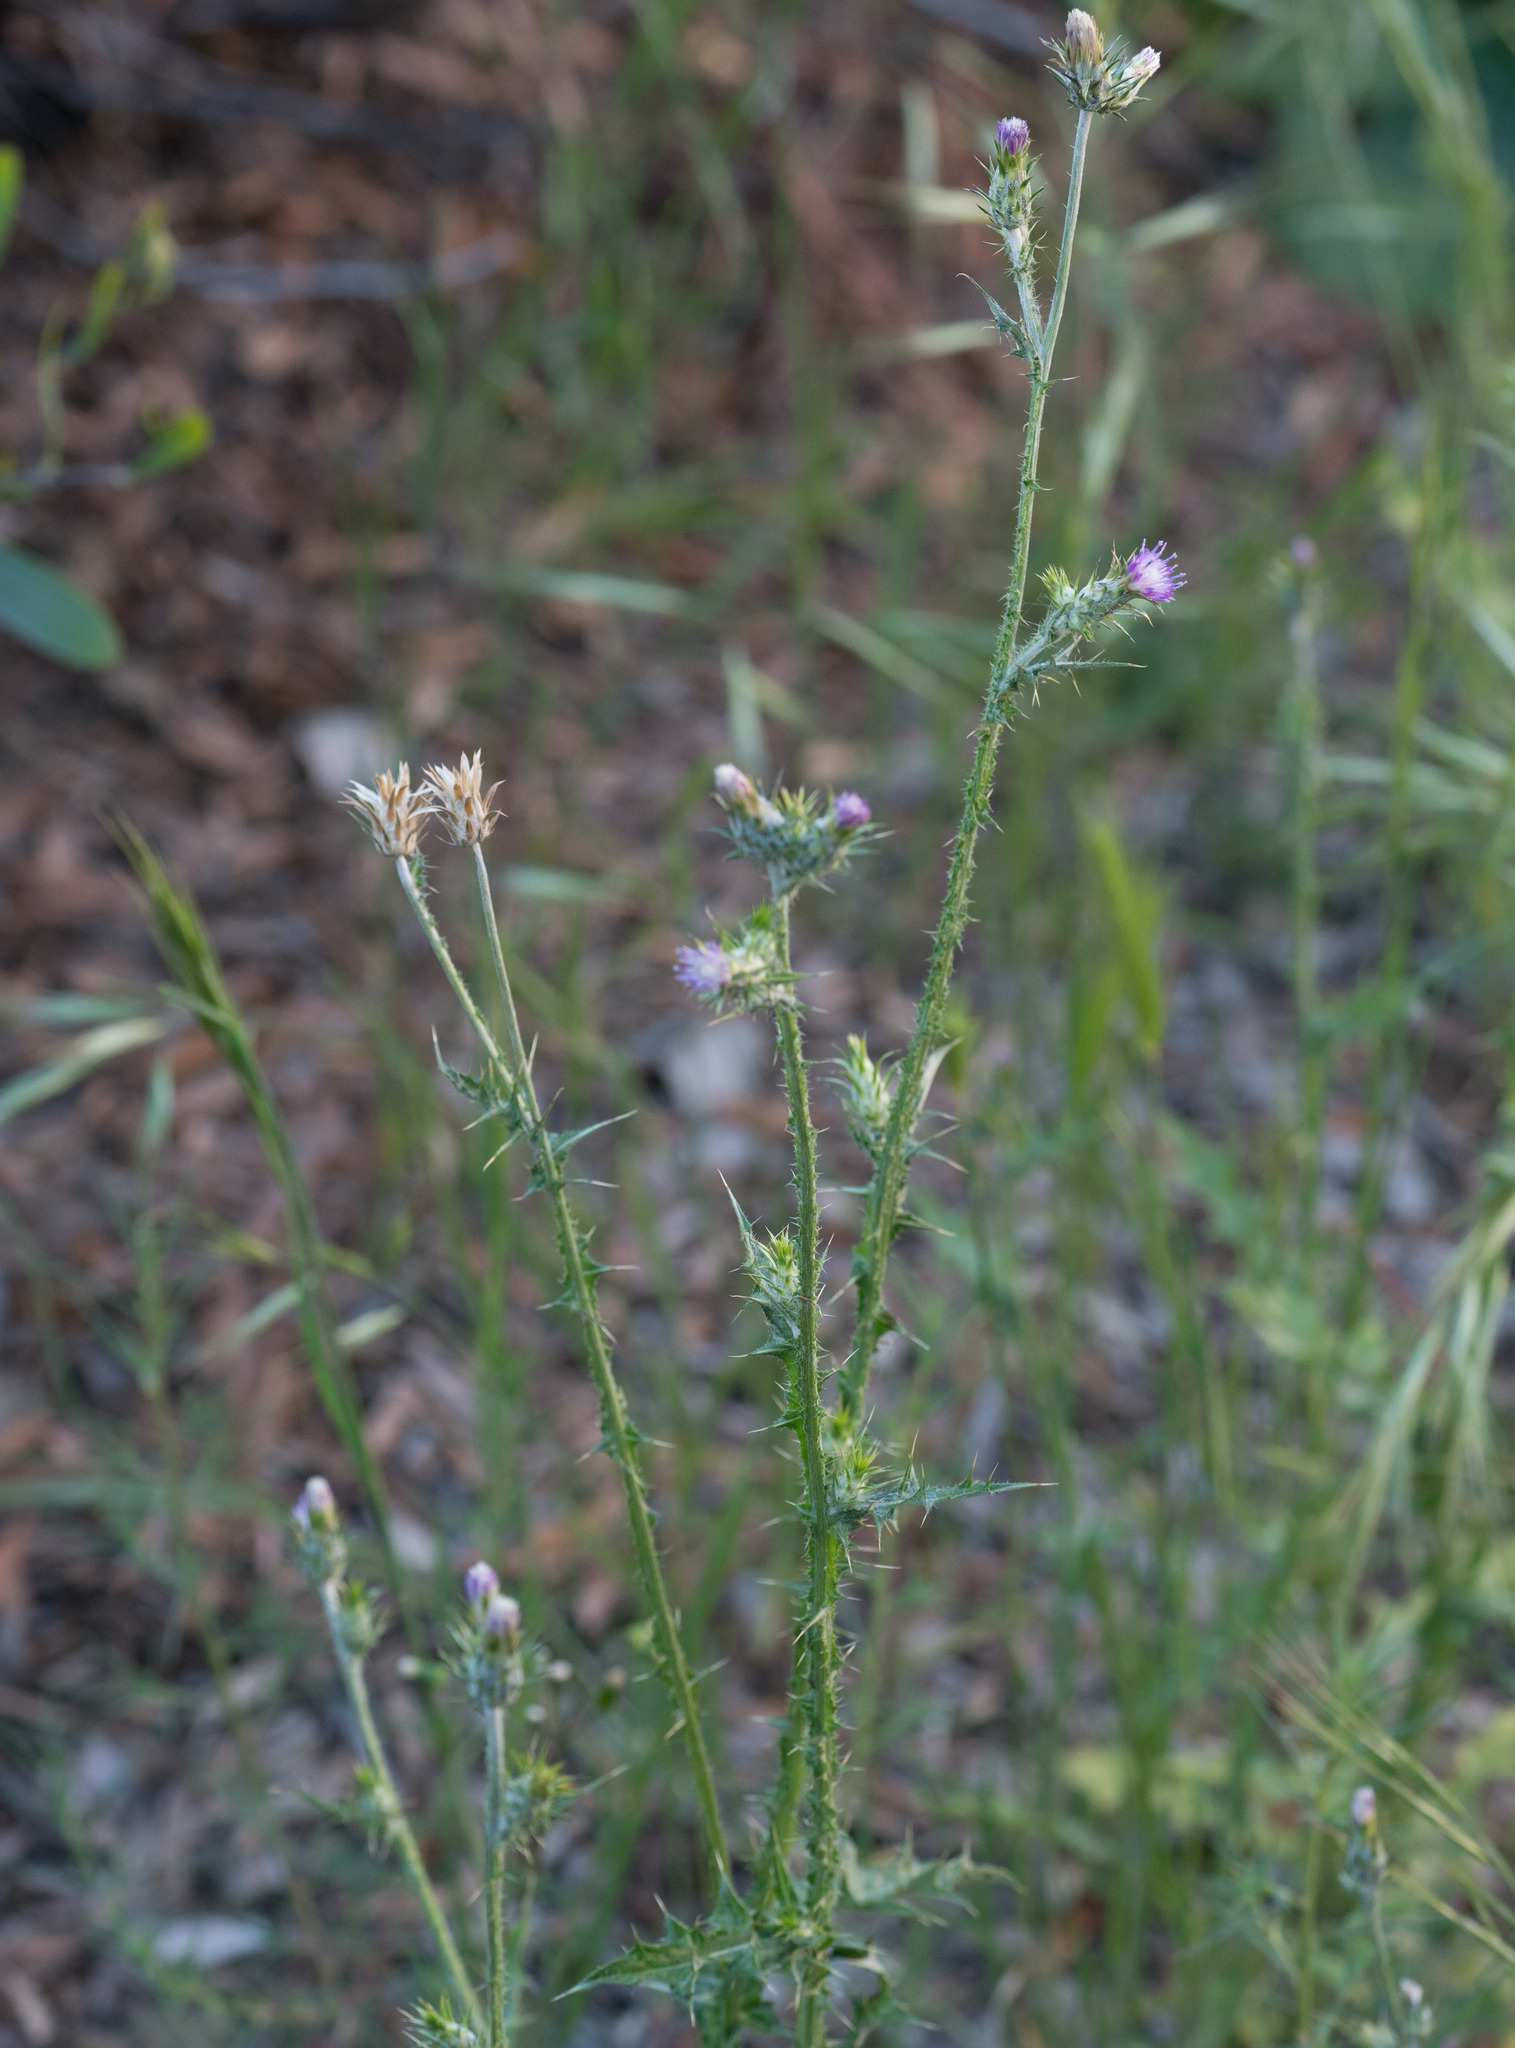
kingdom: Plantae
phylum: Tracheophyta
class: Magnoliopsida
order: Asterales
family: Asteraceae
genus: Carduus
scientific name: Carduus pycnocephalus
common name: Plymouth thistle
